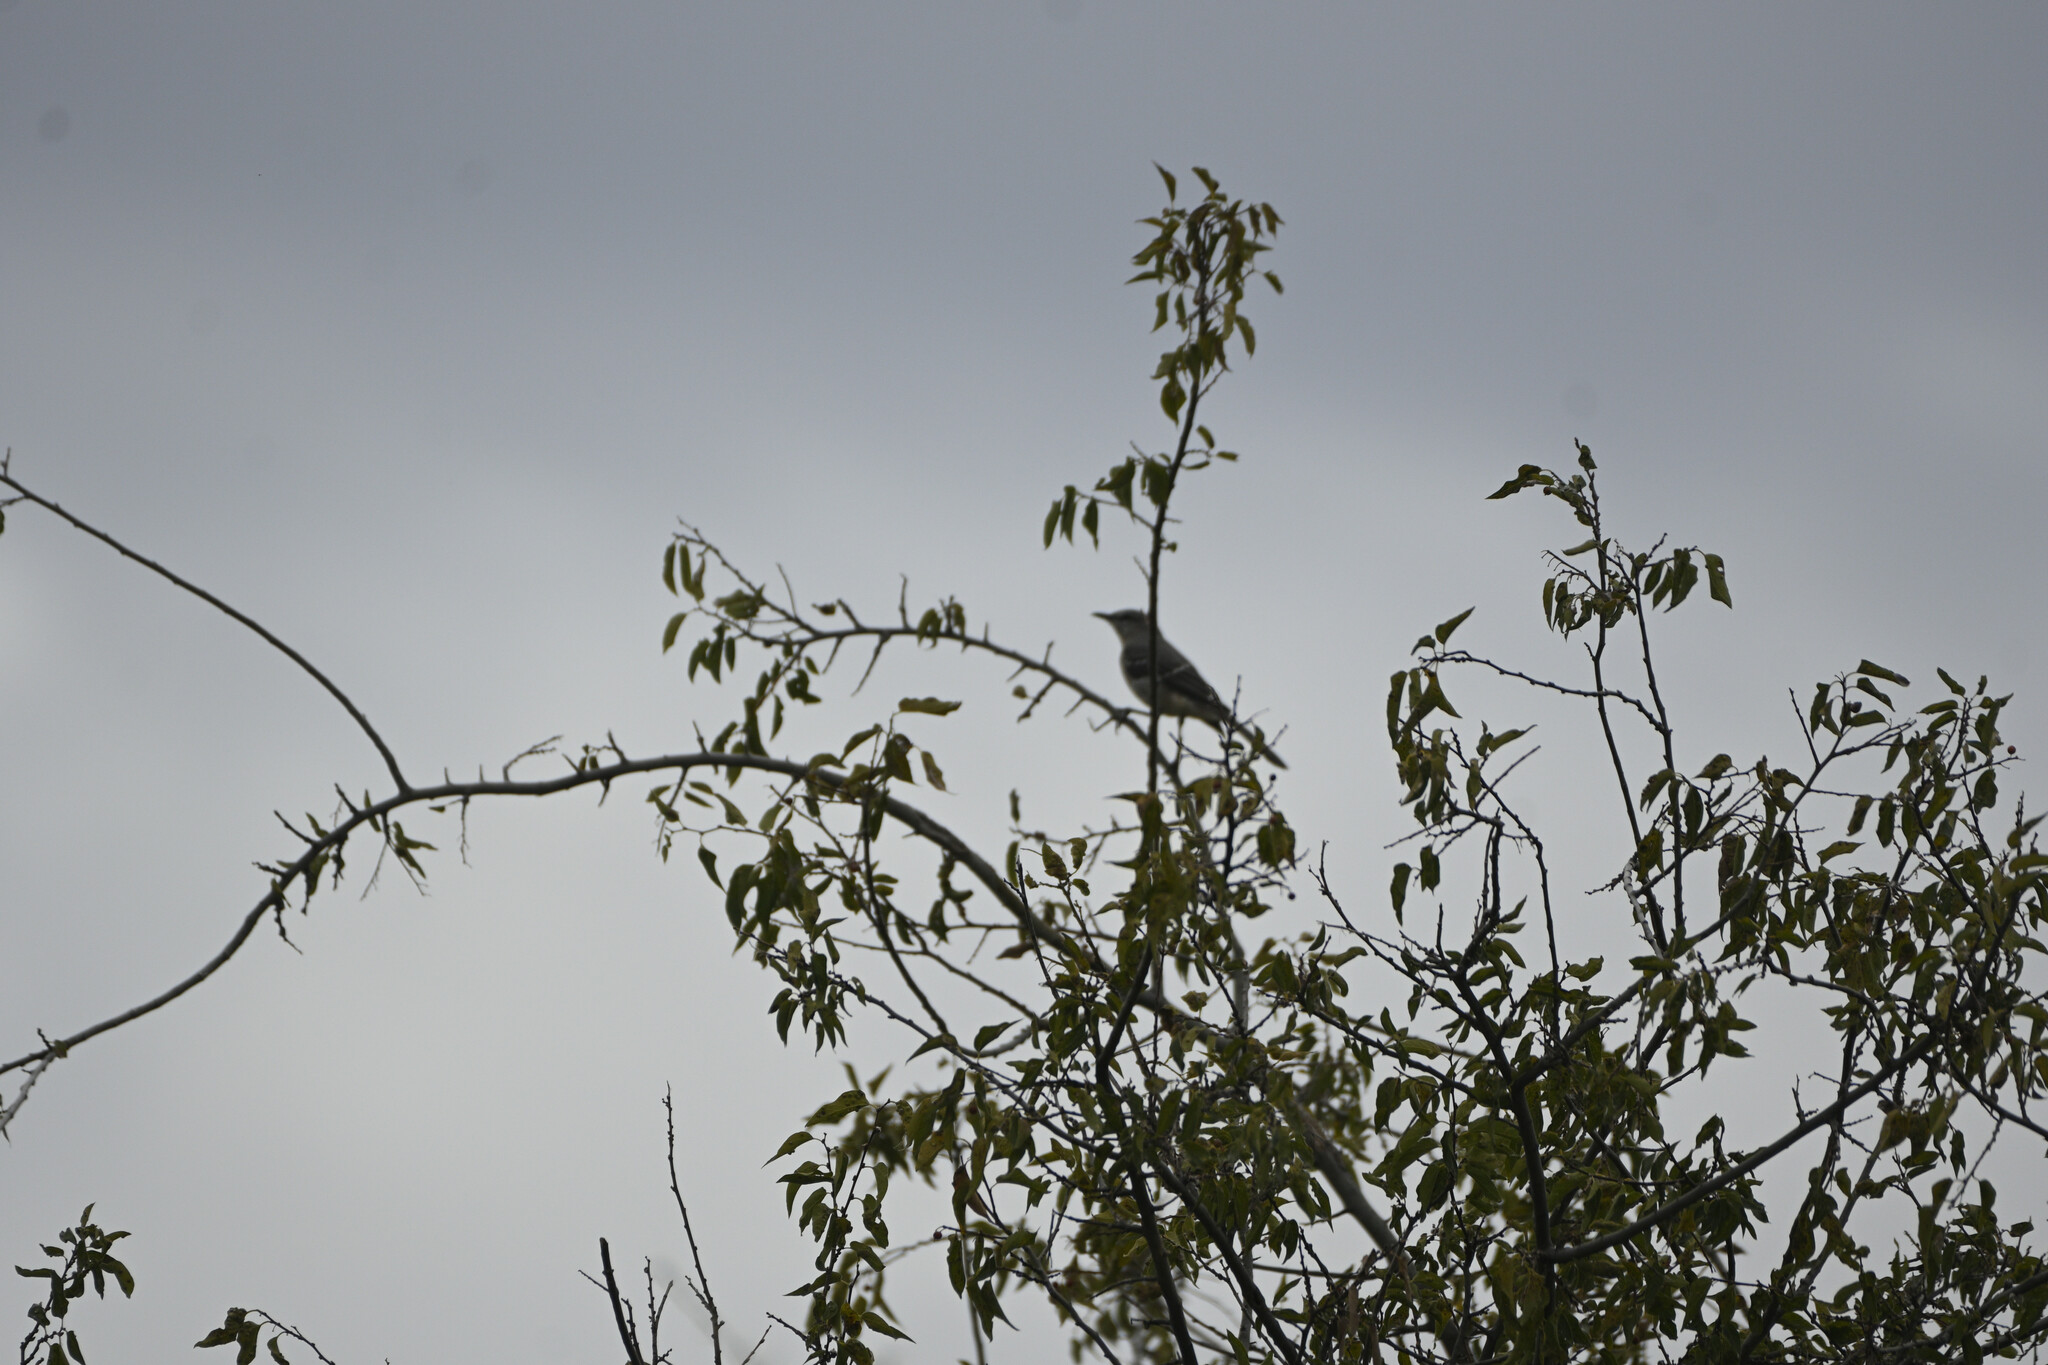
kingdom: Animalia
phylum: Chordata
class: Aves
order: Passeriformes
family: Mimidae
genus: Mimus
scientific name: Mimus polyglottos
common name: Northern mockingbird
